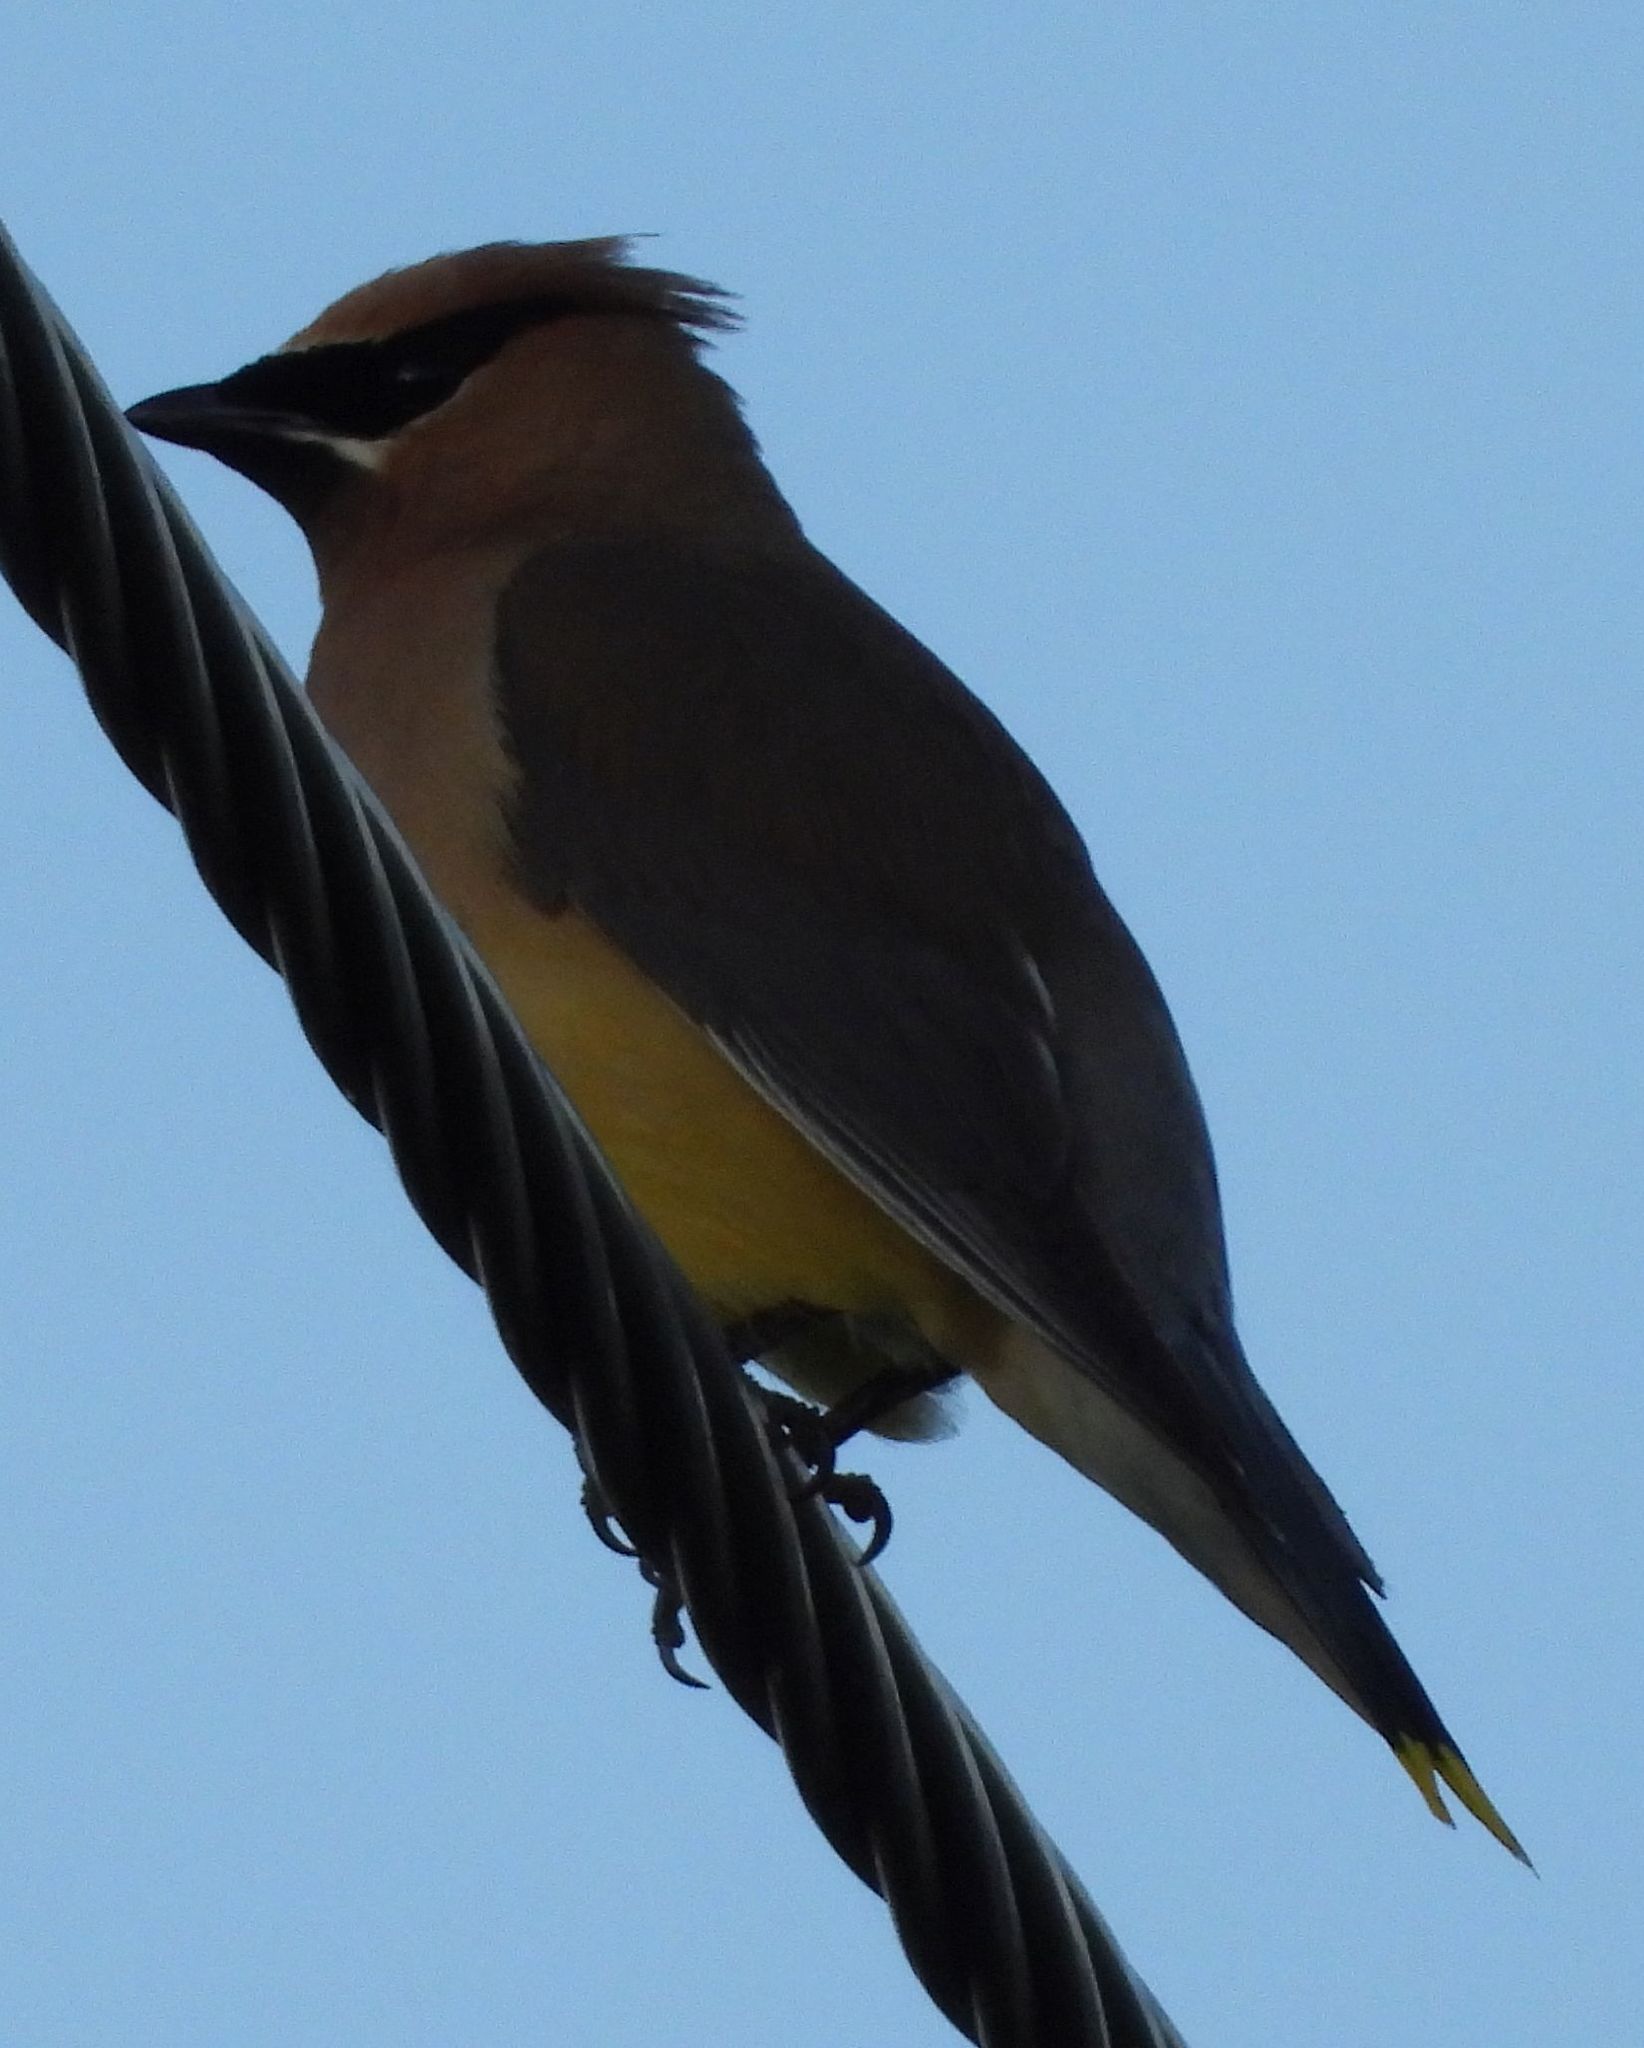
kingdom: Animalia
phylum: Chordata
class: Aves
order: Passeriformes
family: Bombycillidae
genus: Bombycilla
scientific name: Bombycilla cedrorum
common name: Cedar waxwing
